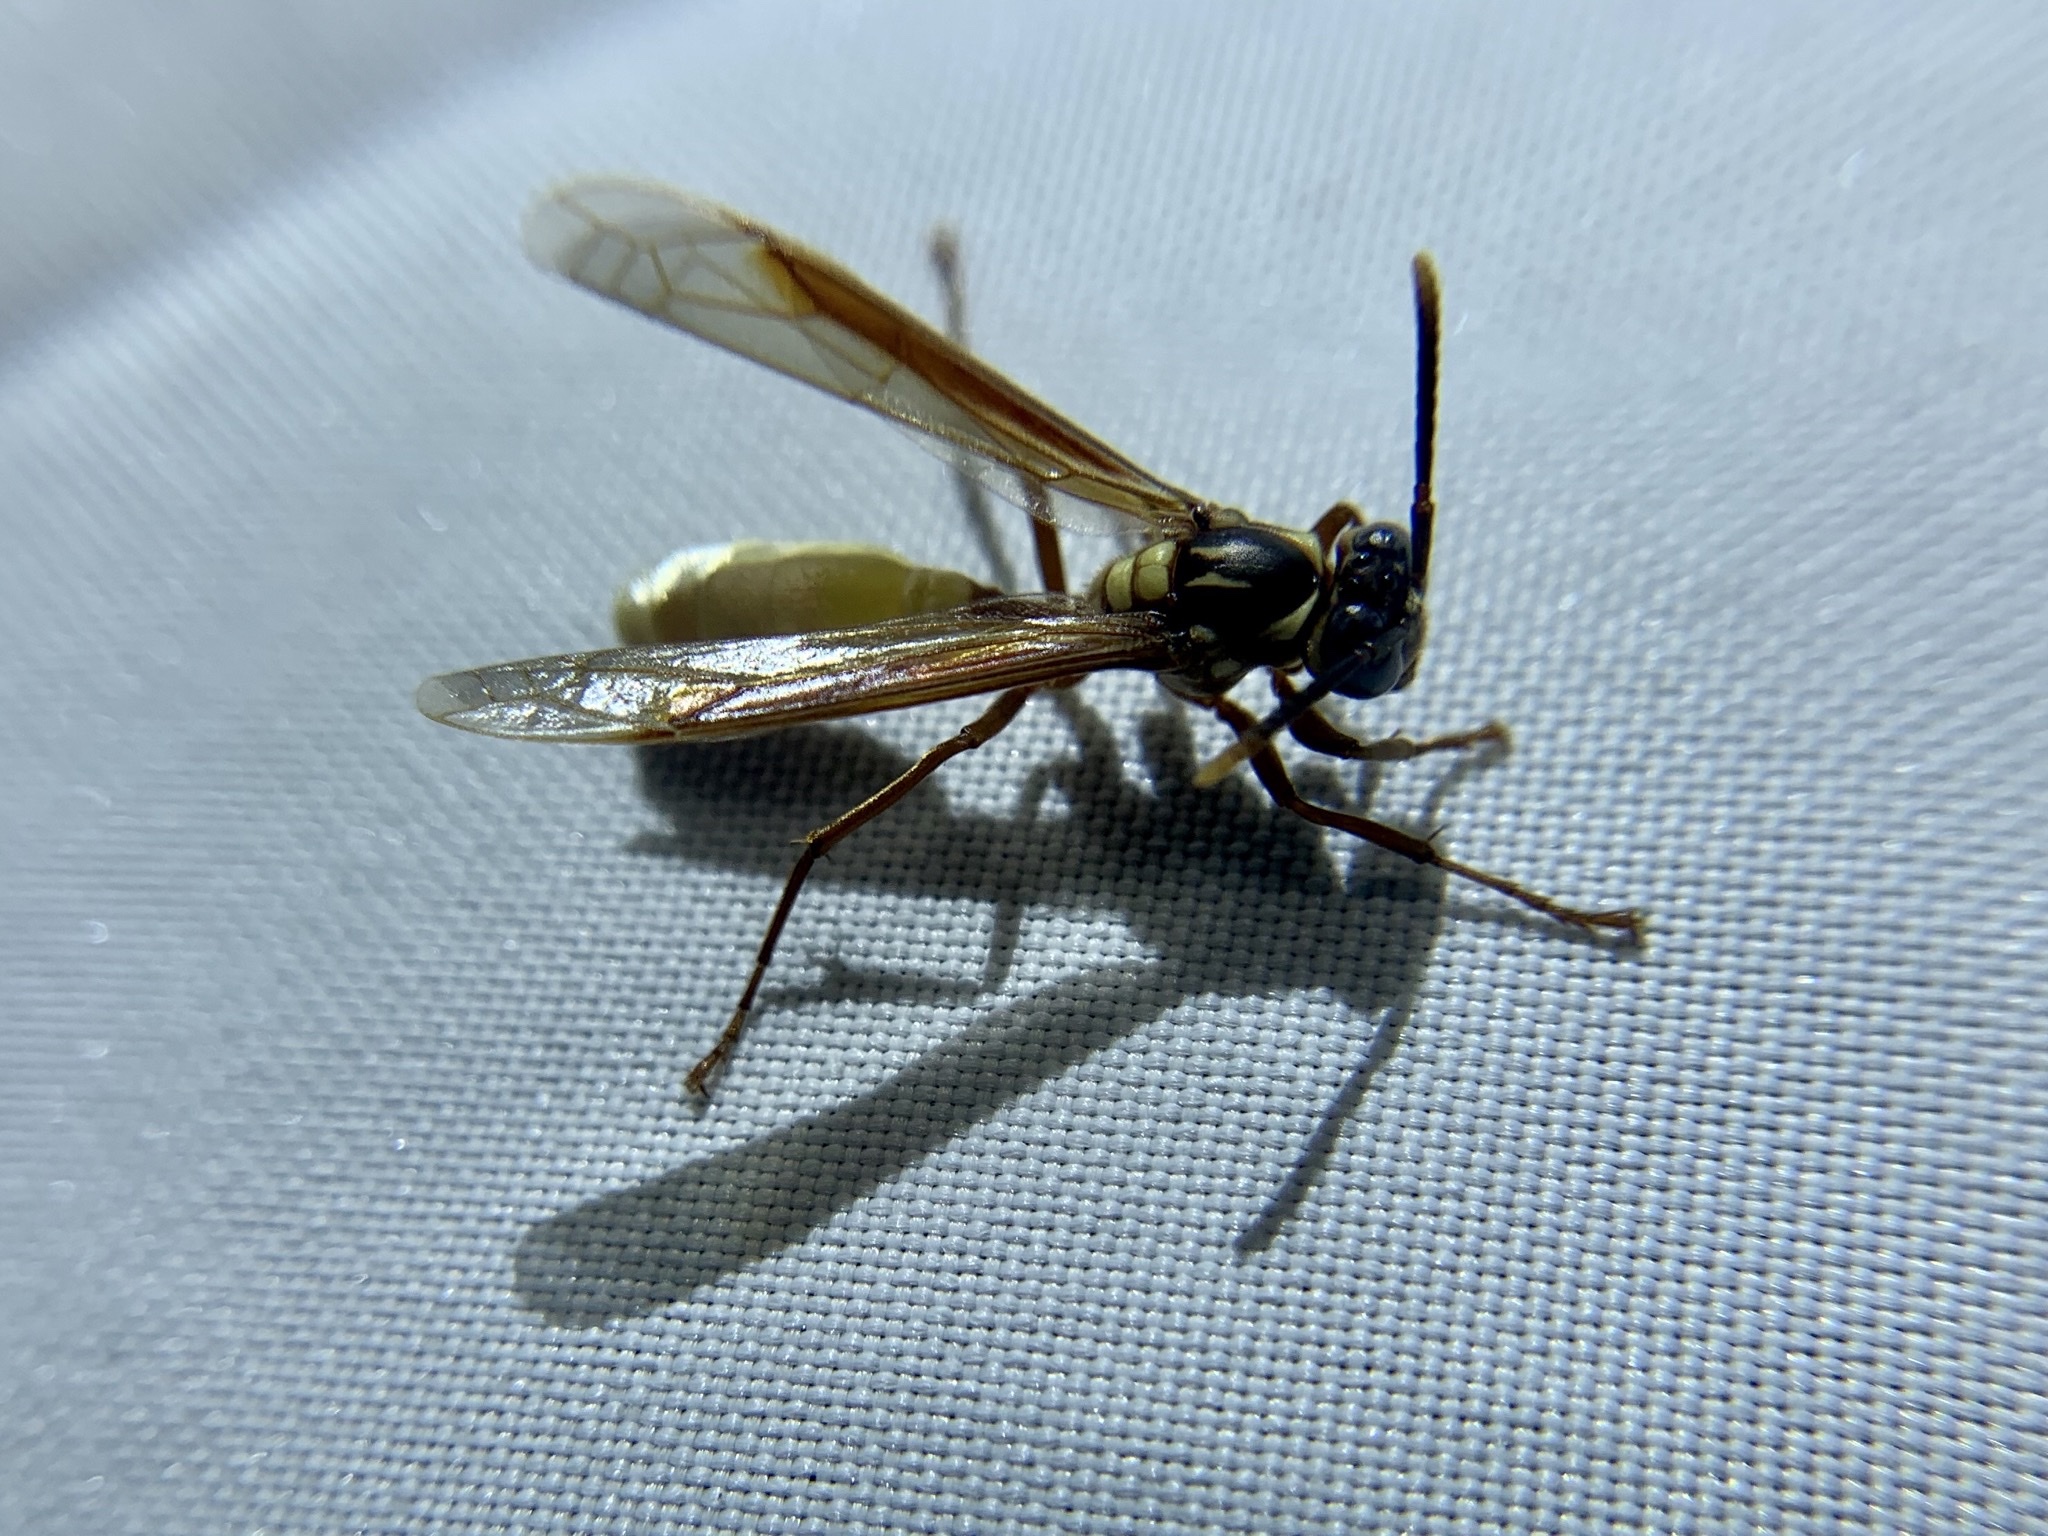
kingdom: Animalia
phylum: Arthropoda
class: Insecta
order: Hymenoptera
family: Vespidae
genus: Apoica
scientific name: Apoica pallens
